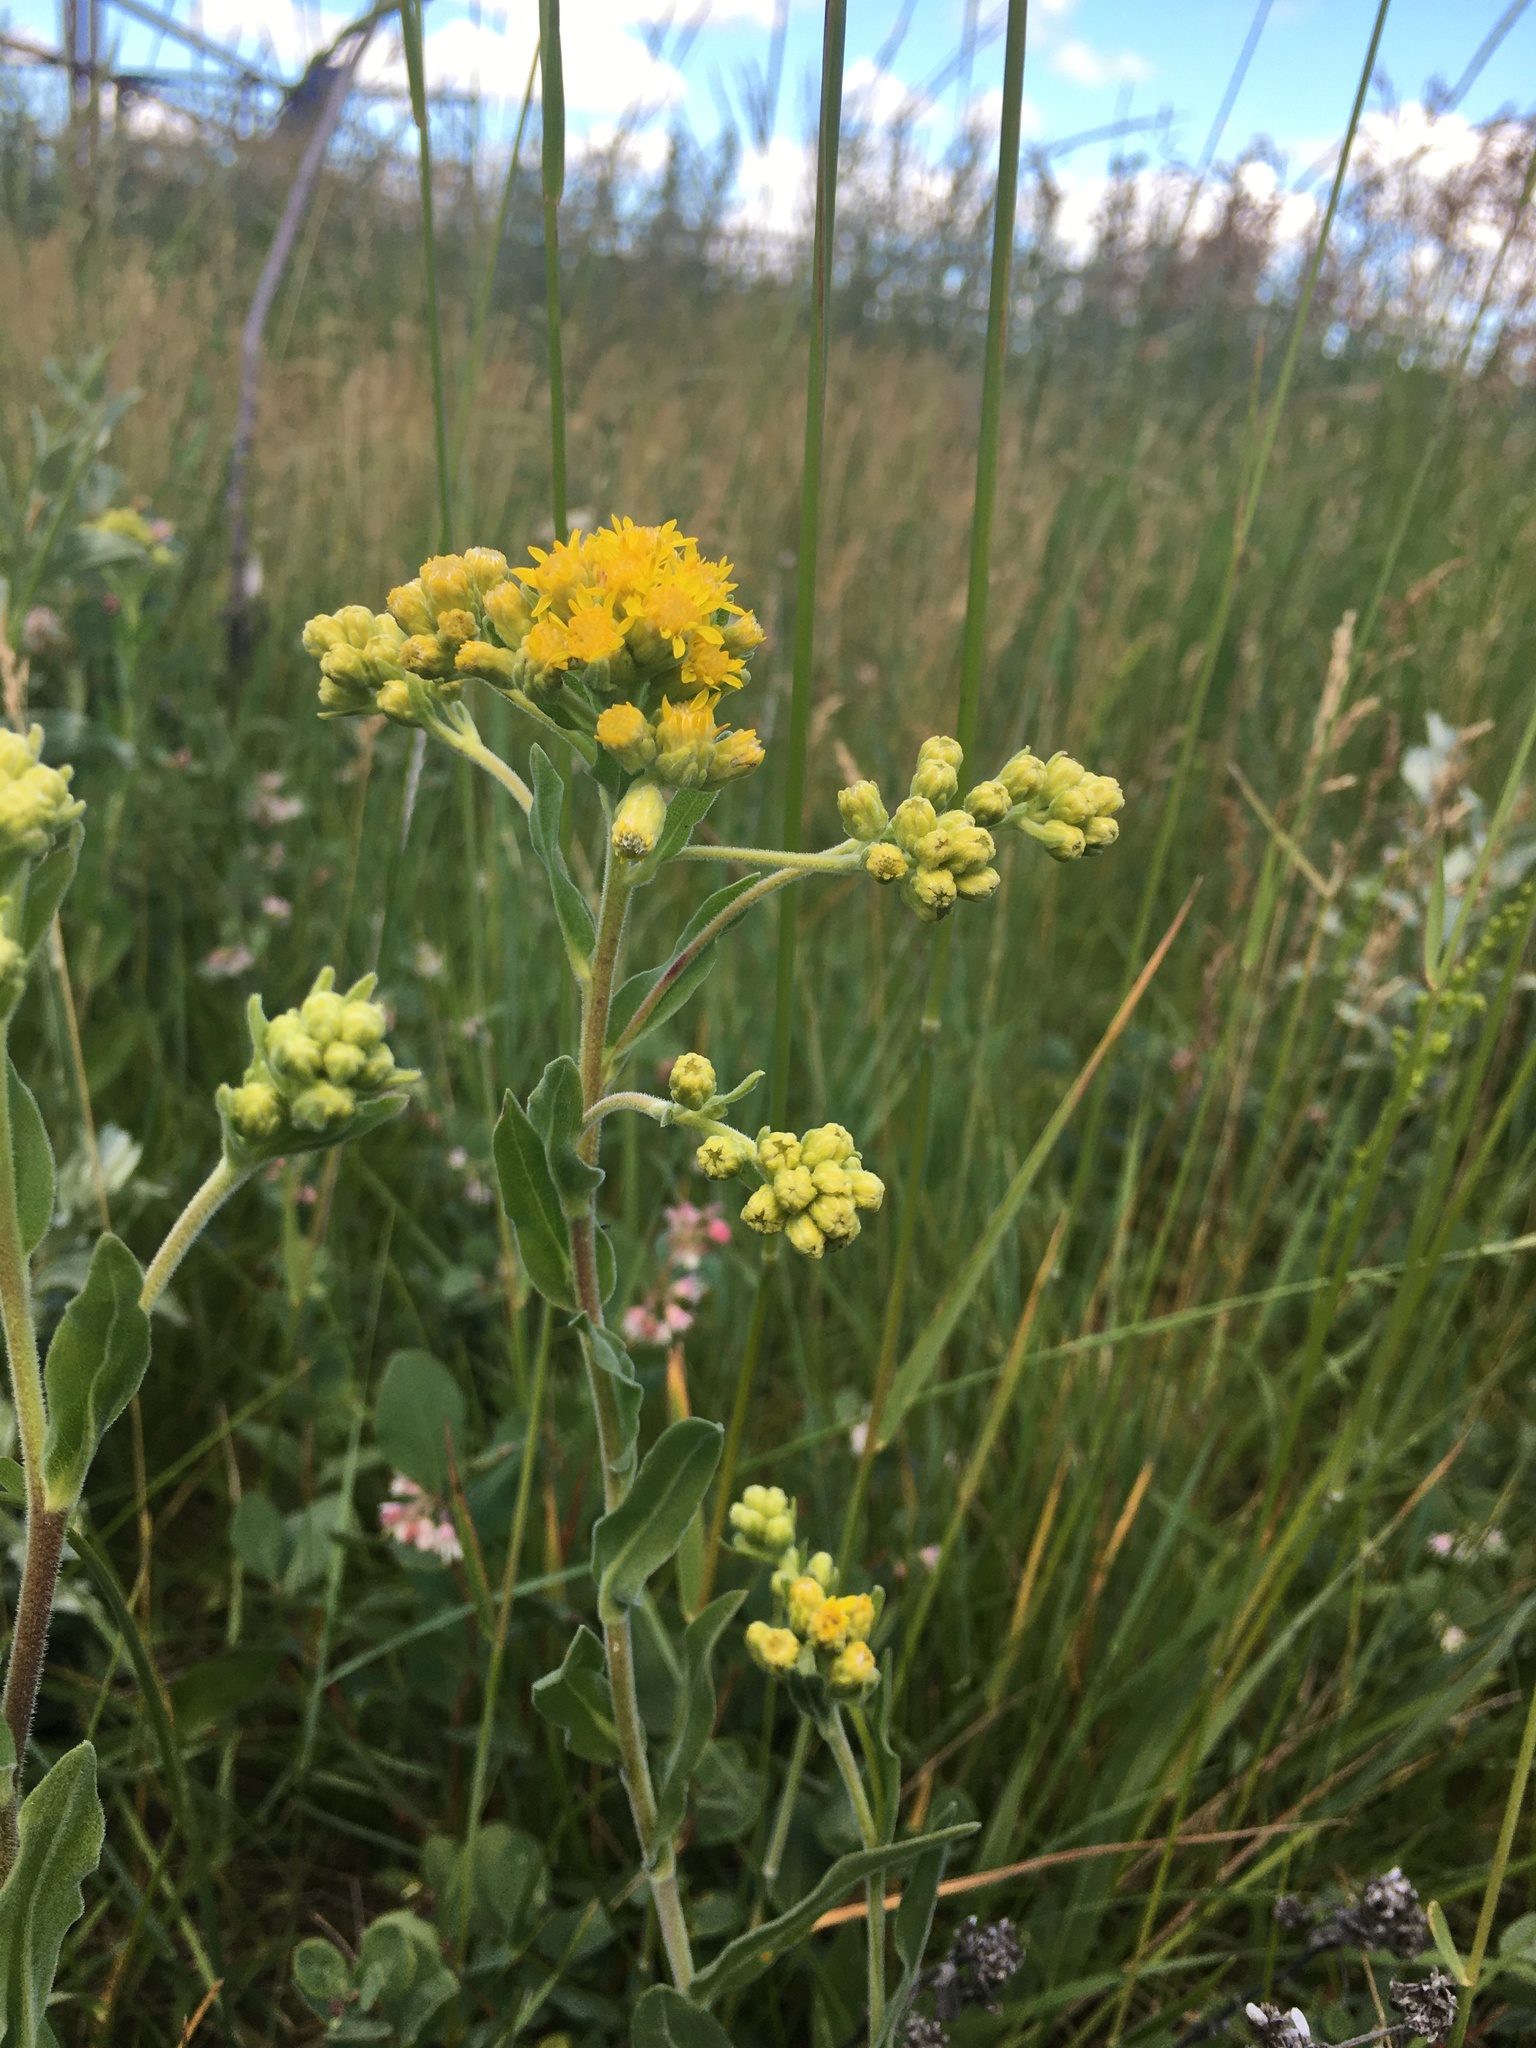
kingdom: Plantae
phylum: Tracheophyta
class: Magnoliopsida
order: Asterales
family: Asteraceae
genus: Solidago
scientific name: Solidago rigida
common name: Rigid goldenrod
